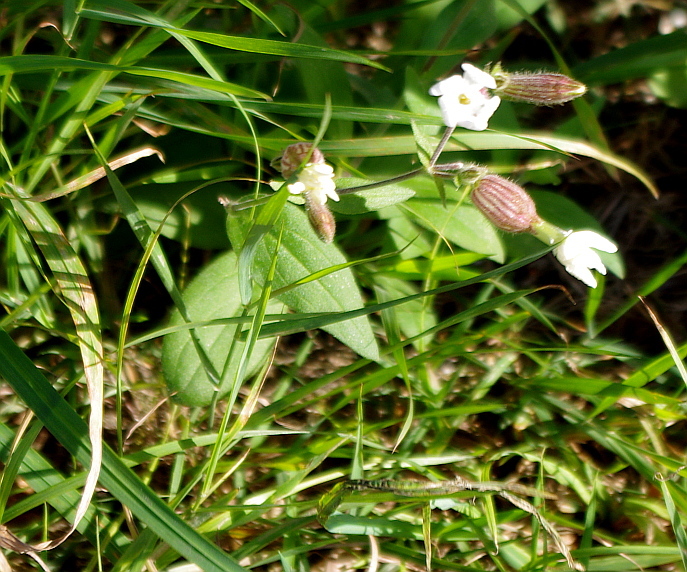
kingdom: Plantae
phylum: Tracheophyta
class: Magnoliopsida
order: Caryophyllales
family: Caryophyllaceae
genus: Silene
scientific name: Silene latifolia
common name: White campion
